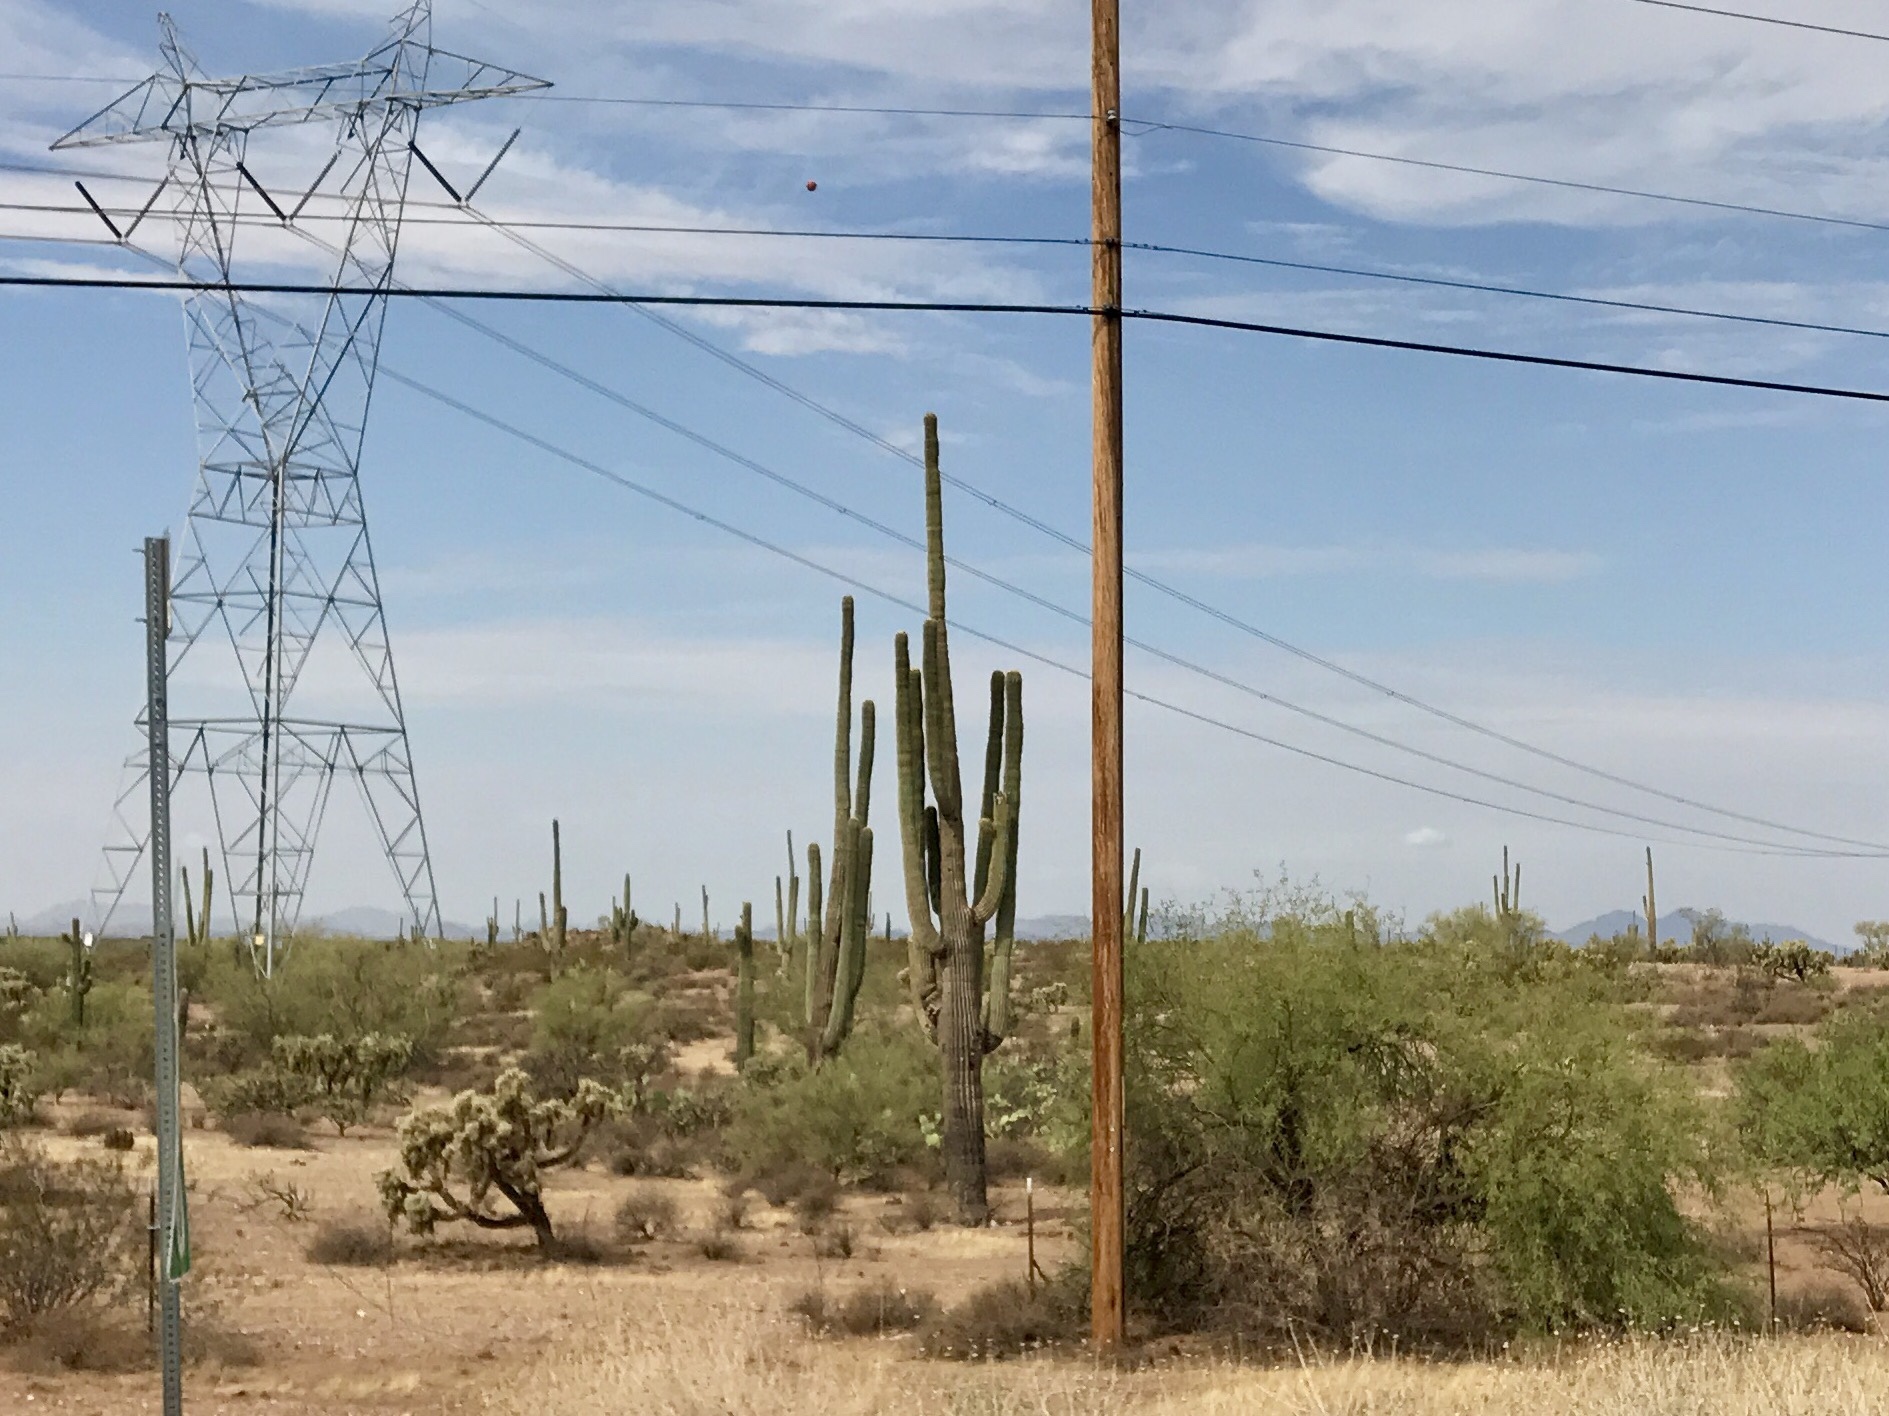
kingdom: Plantae
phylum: Tracheophyta
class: Magnoliopsida
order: Caryophyllales
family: Cactaceae
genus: Carnegiea
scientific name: Carnegiea gigantea
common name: Saguaro
